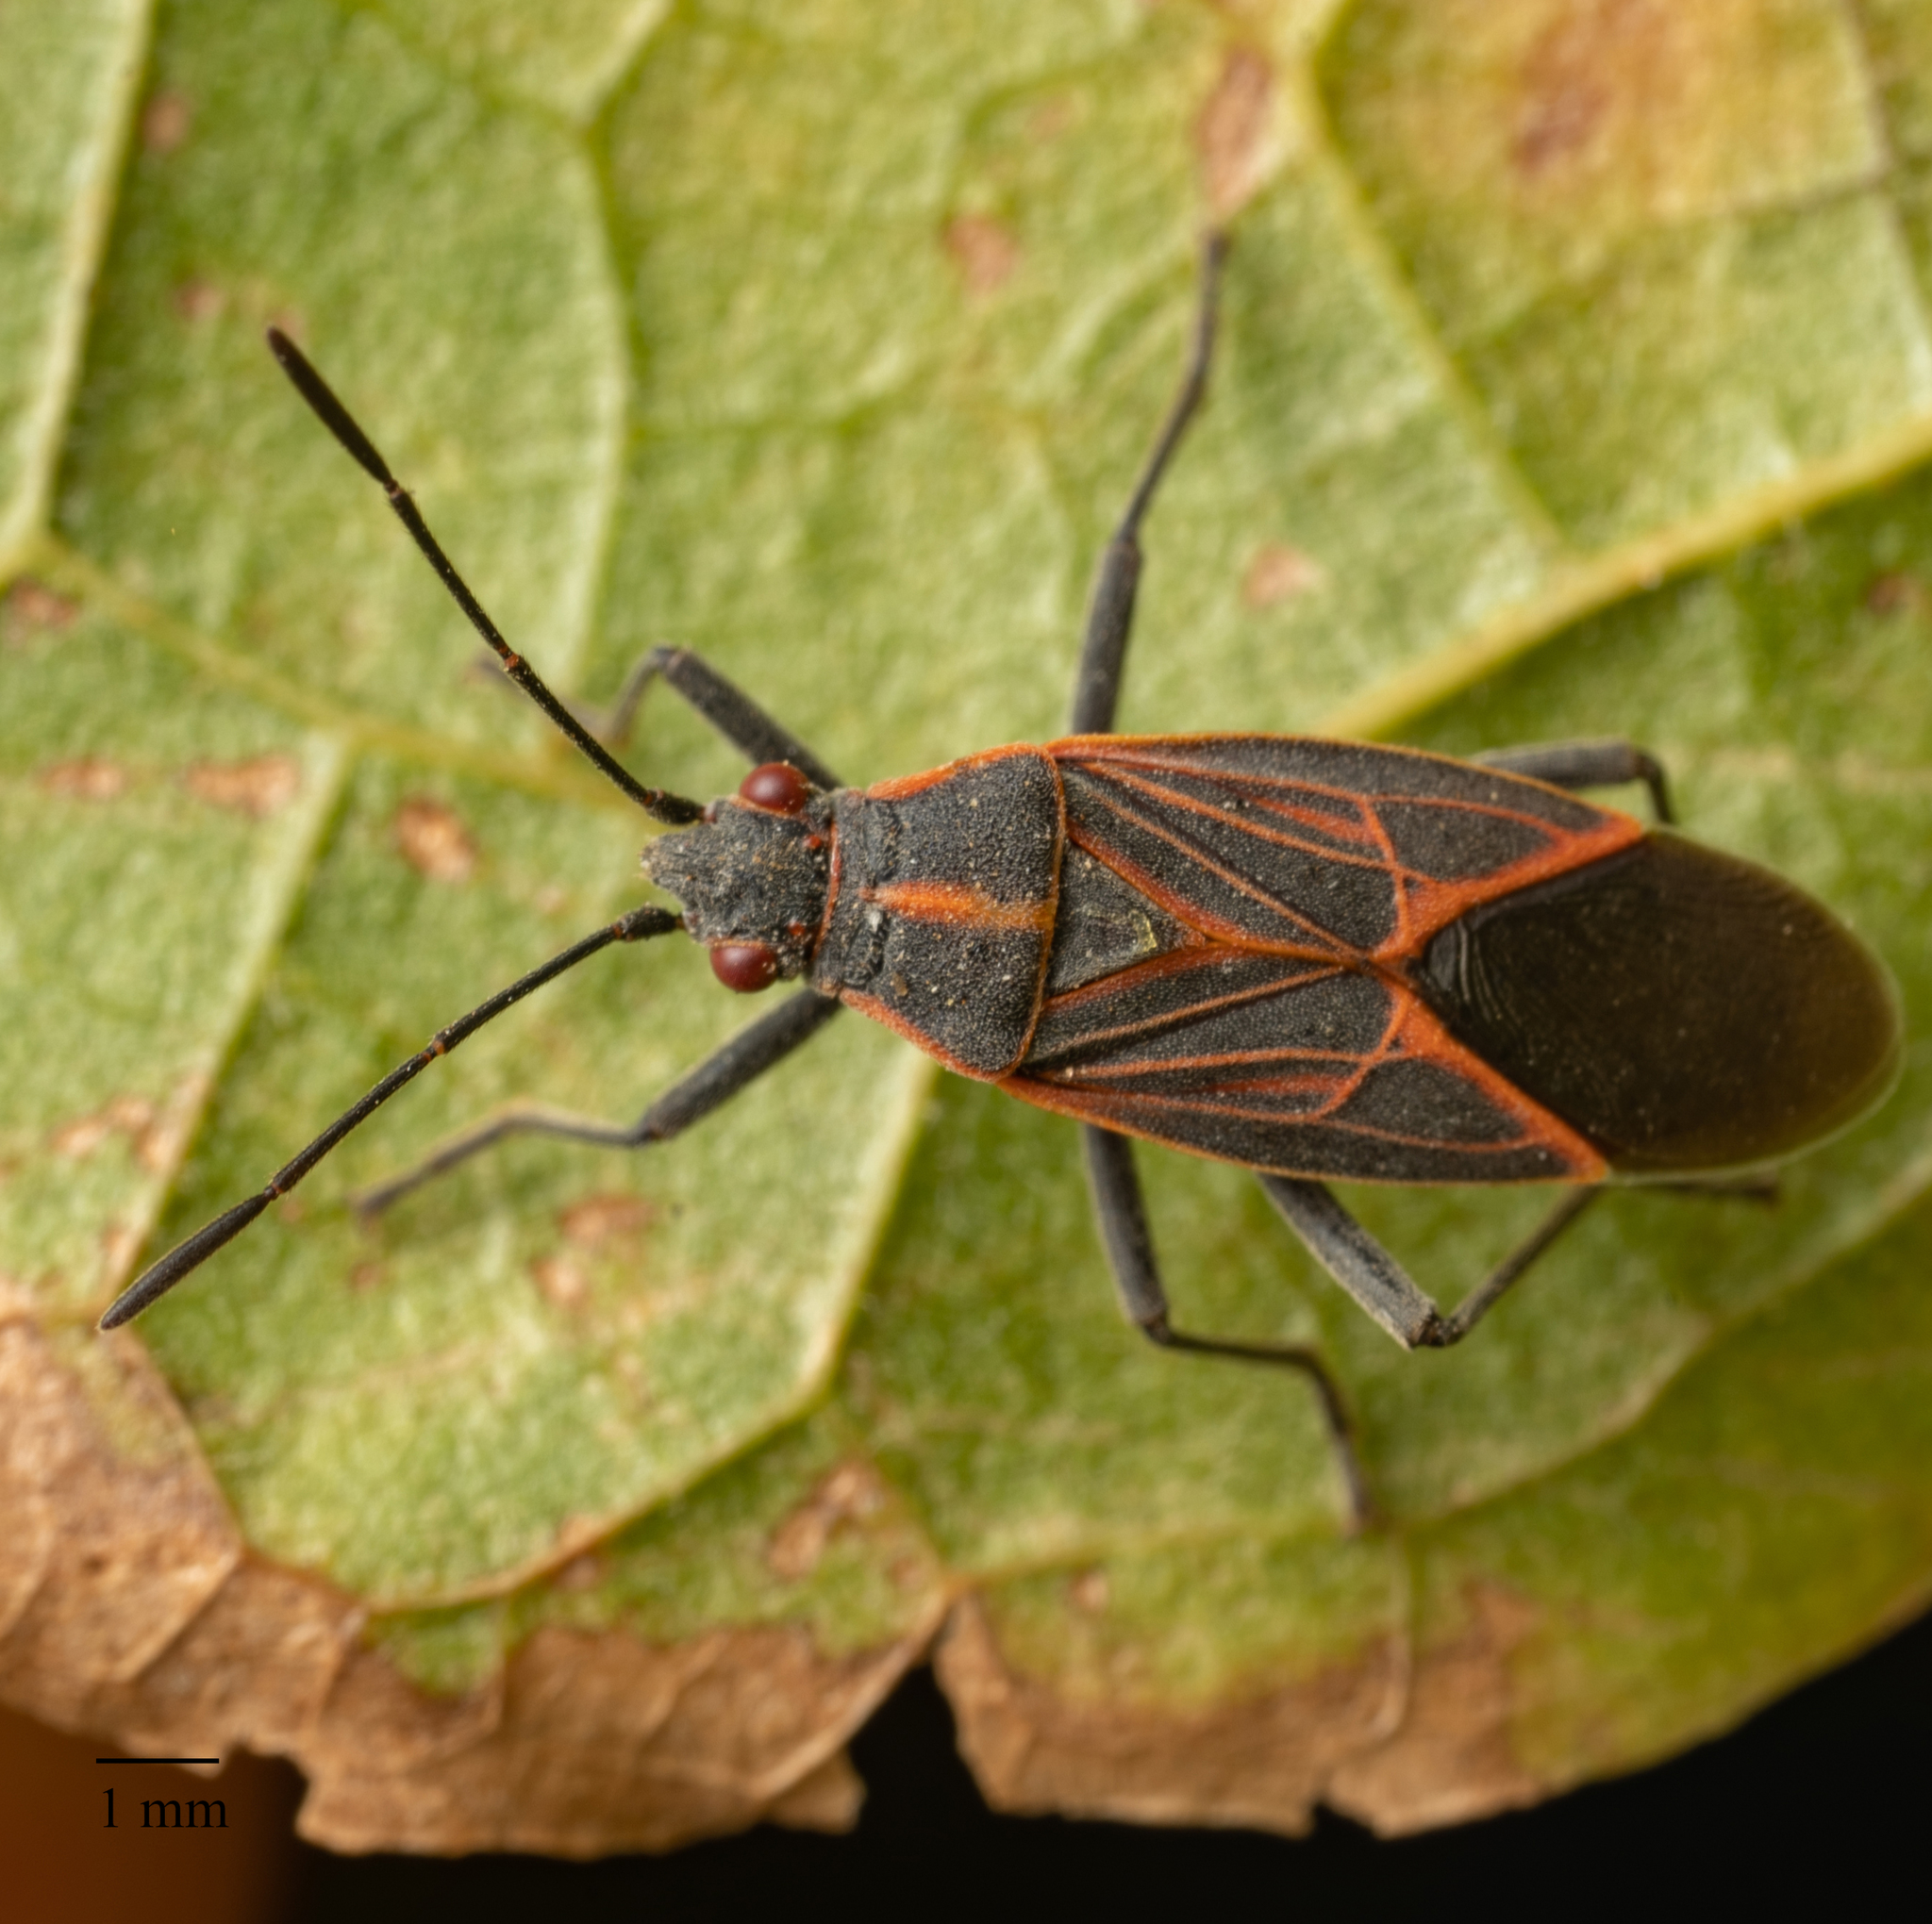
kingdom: Animalia
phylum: Arthropoda
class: Insecta
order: Hemiptera
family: Rhopalidae
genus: Boisea
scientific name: Boisea rubrolineata
